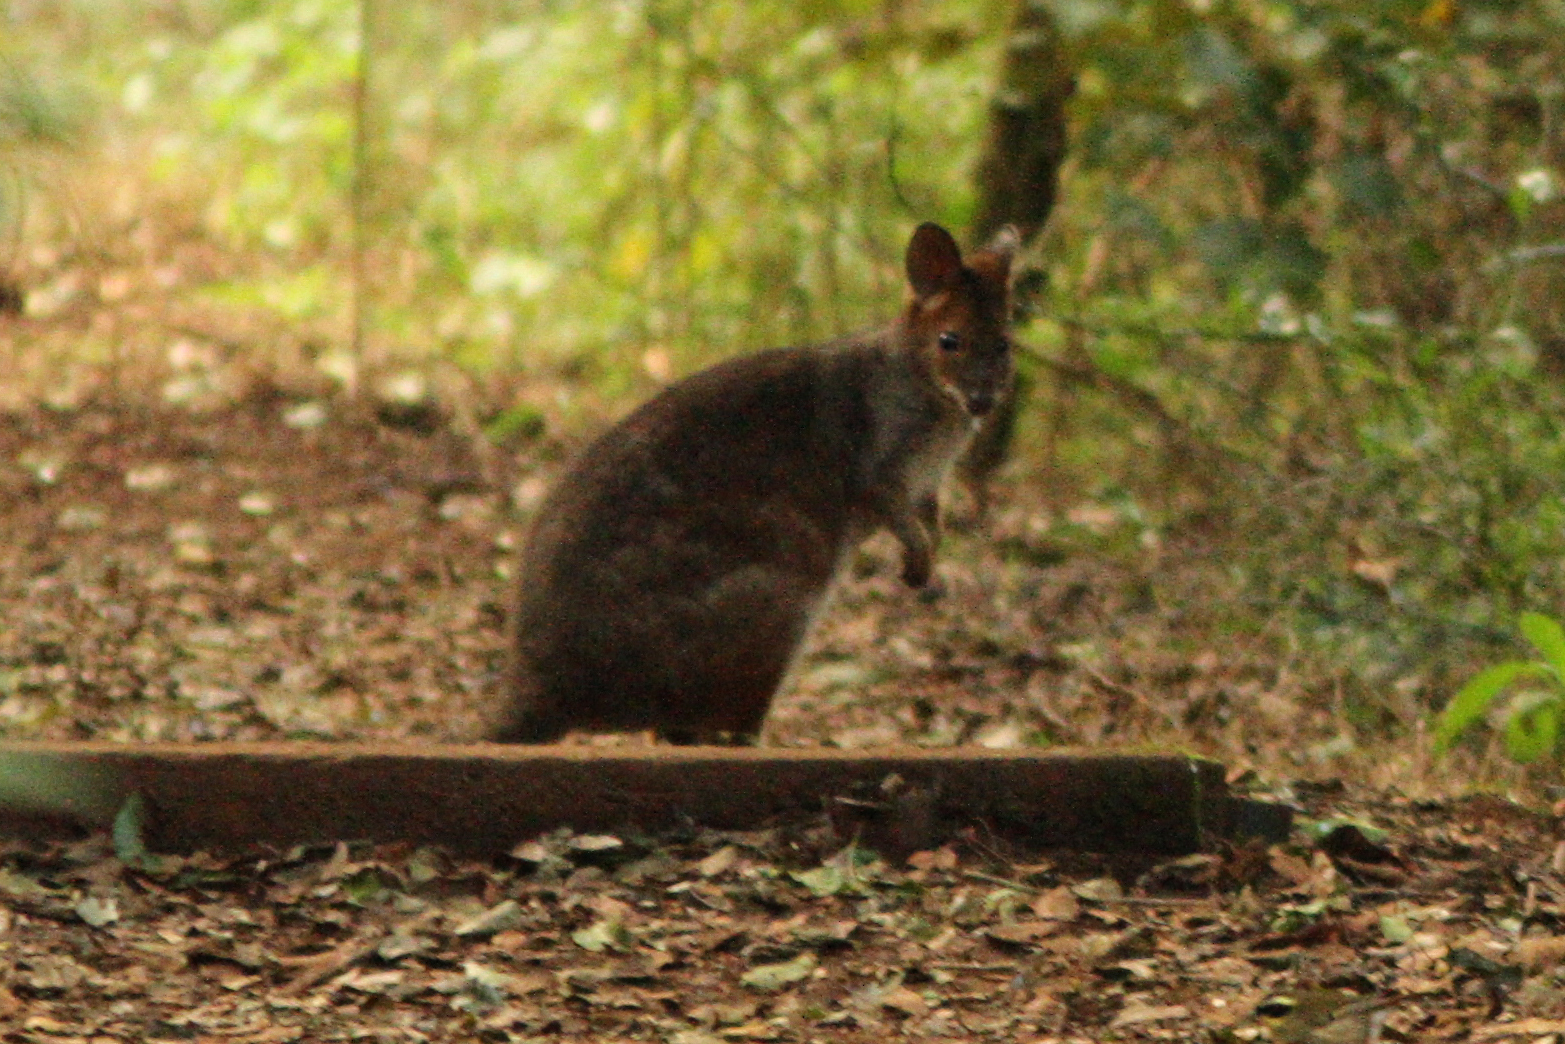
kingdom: Animalia
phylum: Chordata
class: Mammalia
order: Diprotodontia
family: Macropodidae
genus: Thylogale
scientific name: Thylogale stigmatica
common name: Red-legged pademelon
